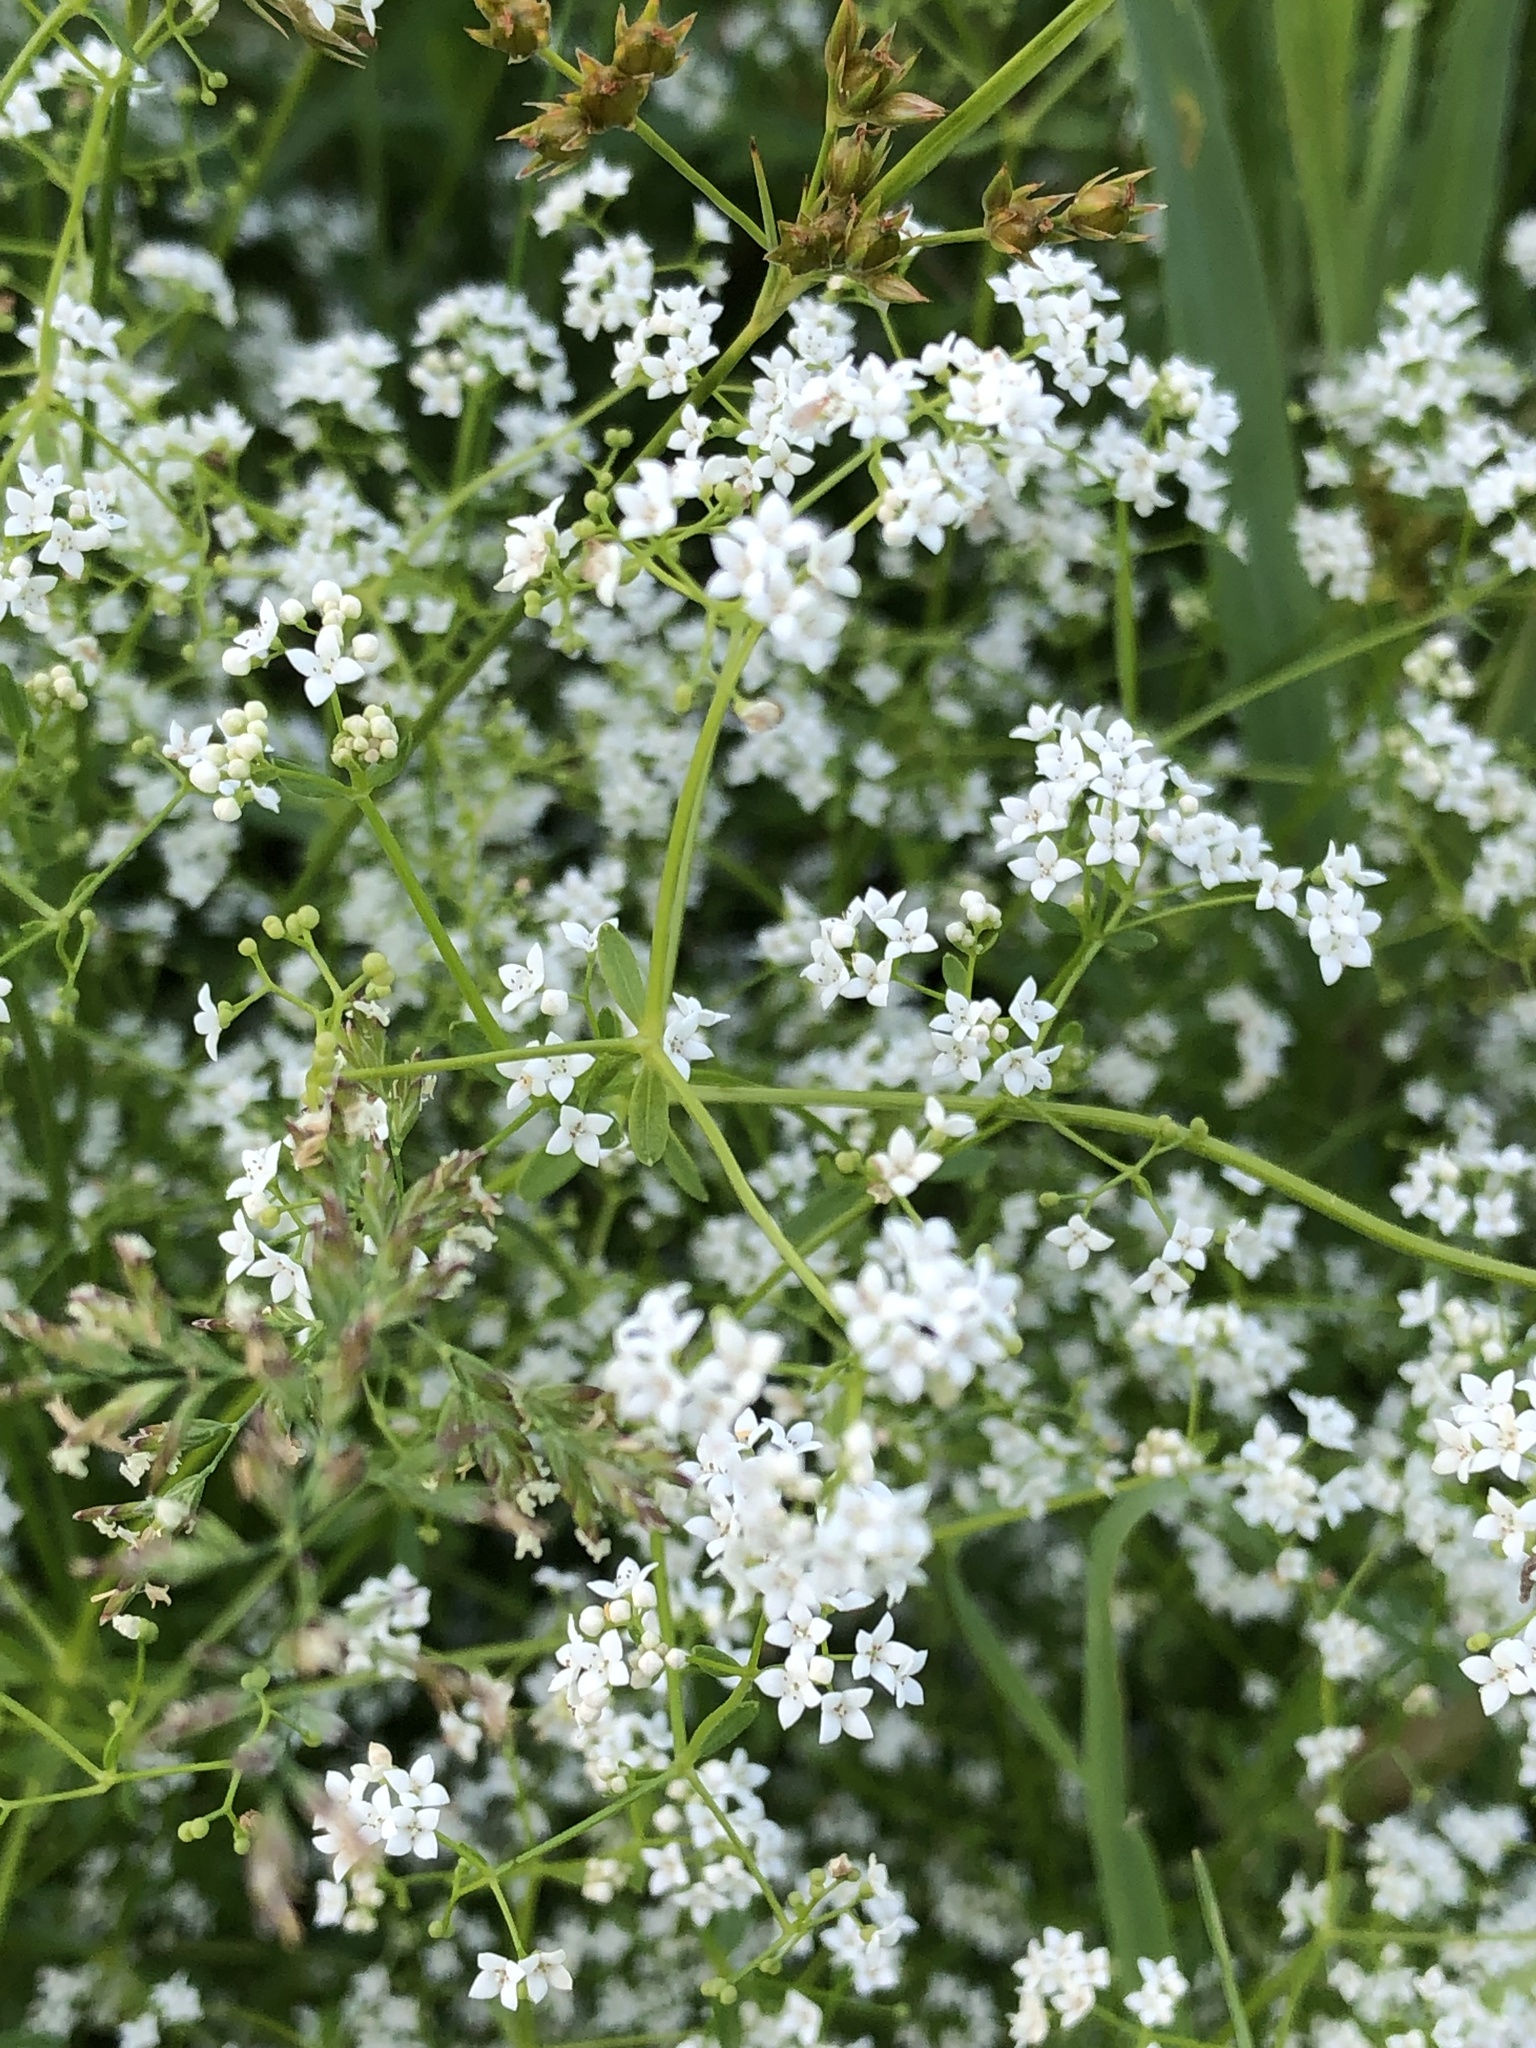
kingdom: Plantae
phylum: Tracheophyta
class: Magnoliopsida
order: Gentianales
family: Rubiaceae
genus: Galium
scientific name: Galium palustre
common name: Common marsh-bedstraw
